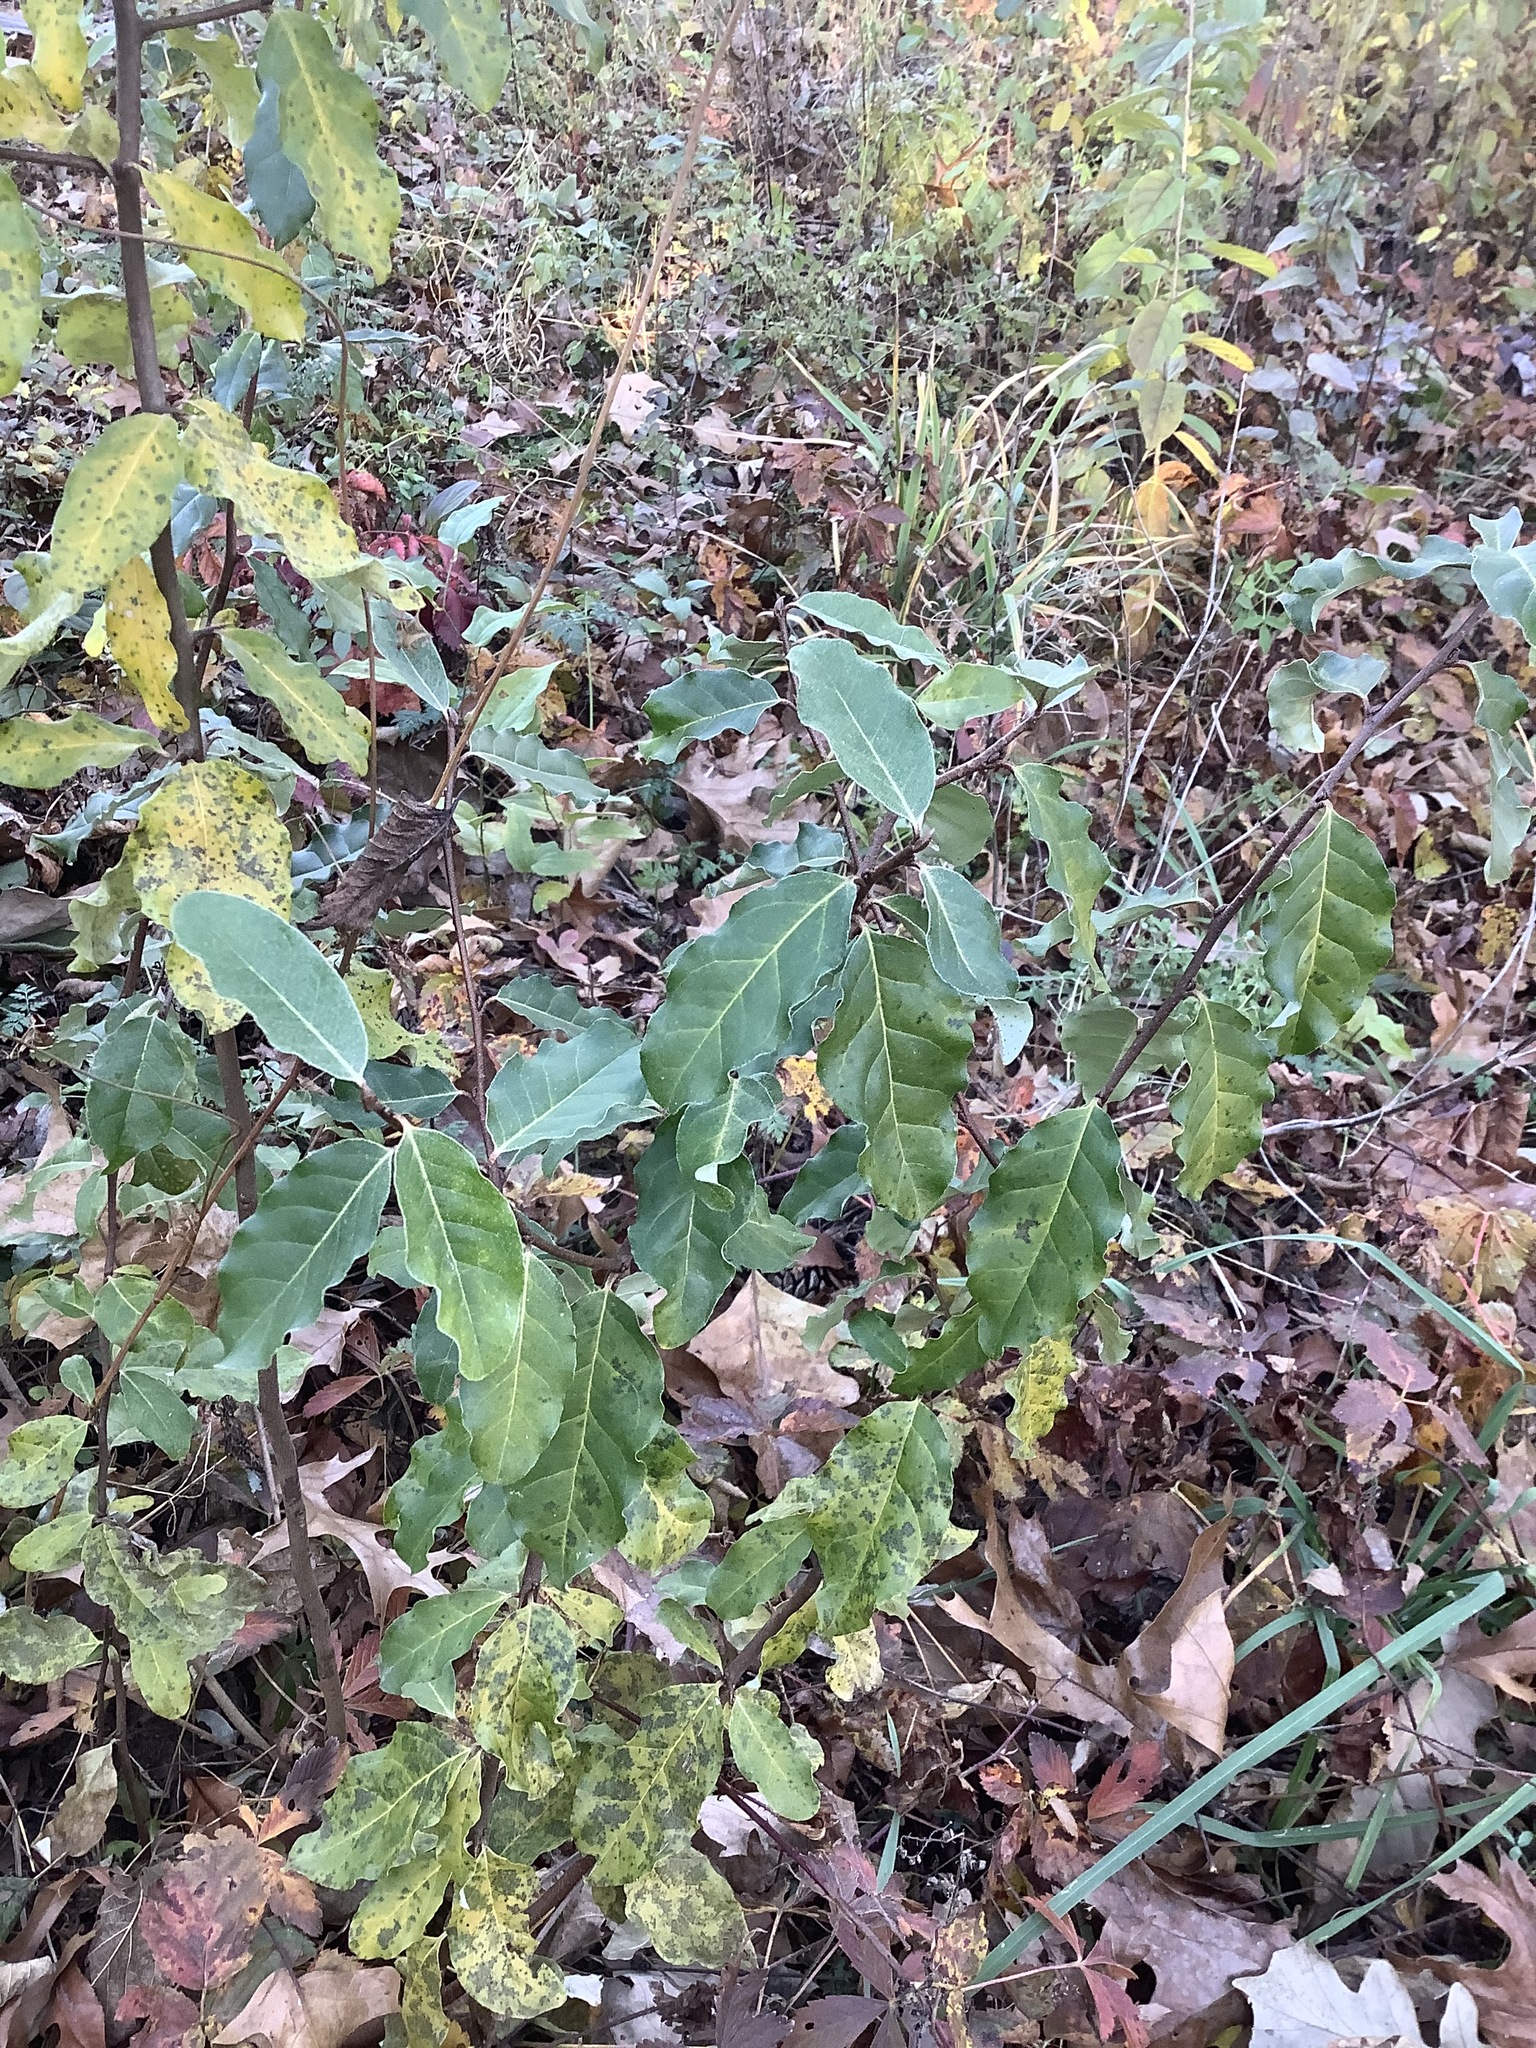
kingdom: Plantae
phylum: Tracheophyta
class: Magnoliopsida
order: Rosales
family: Elaeagnaceae
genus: Elaeagnus
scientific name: Elaeagnus umbellata
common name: Autumn olive
